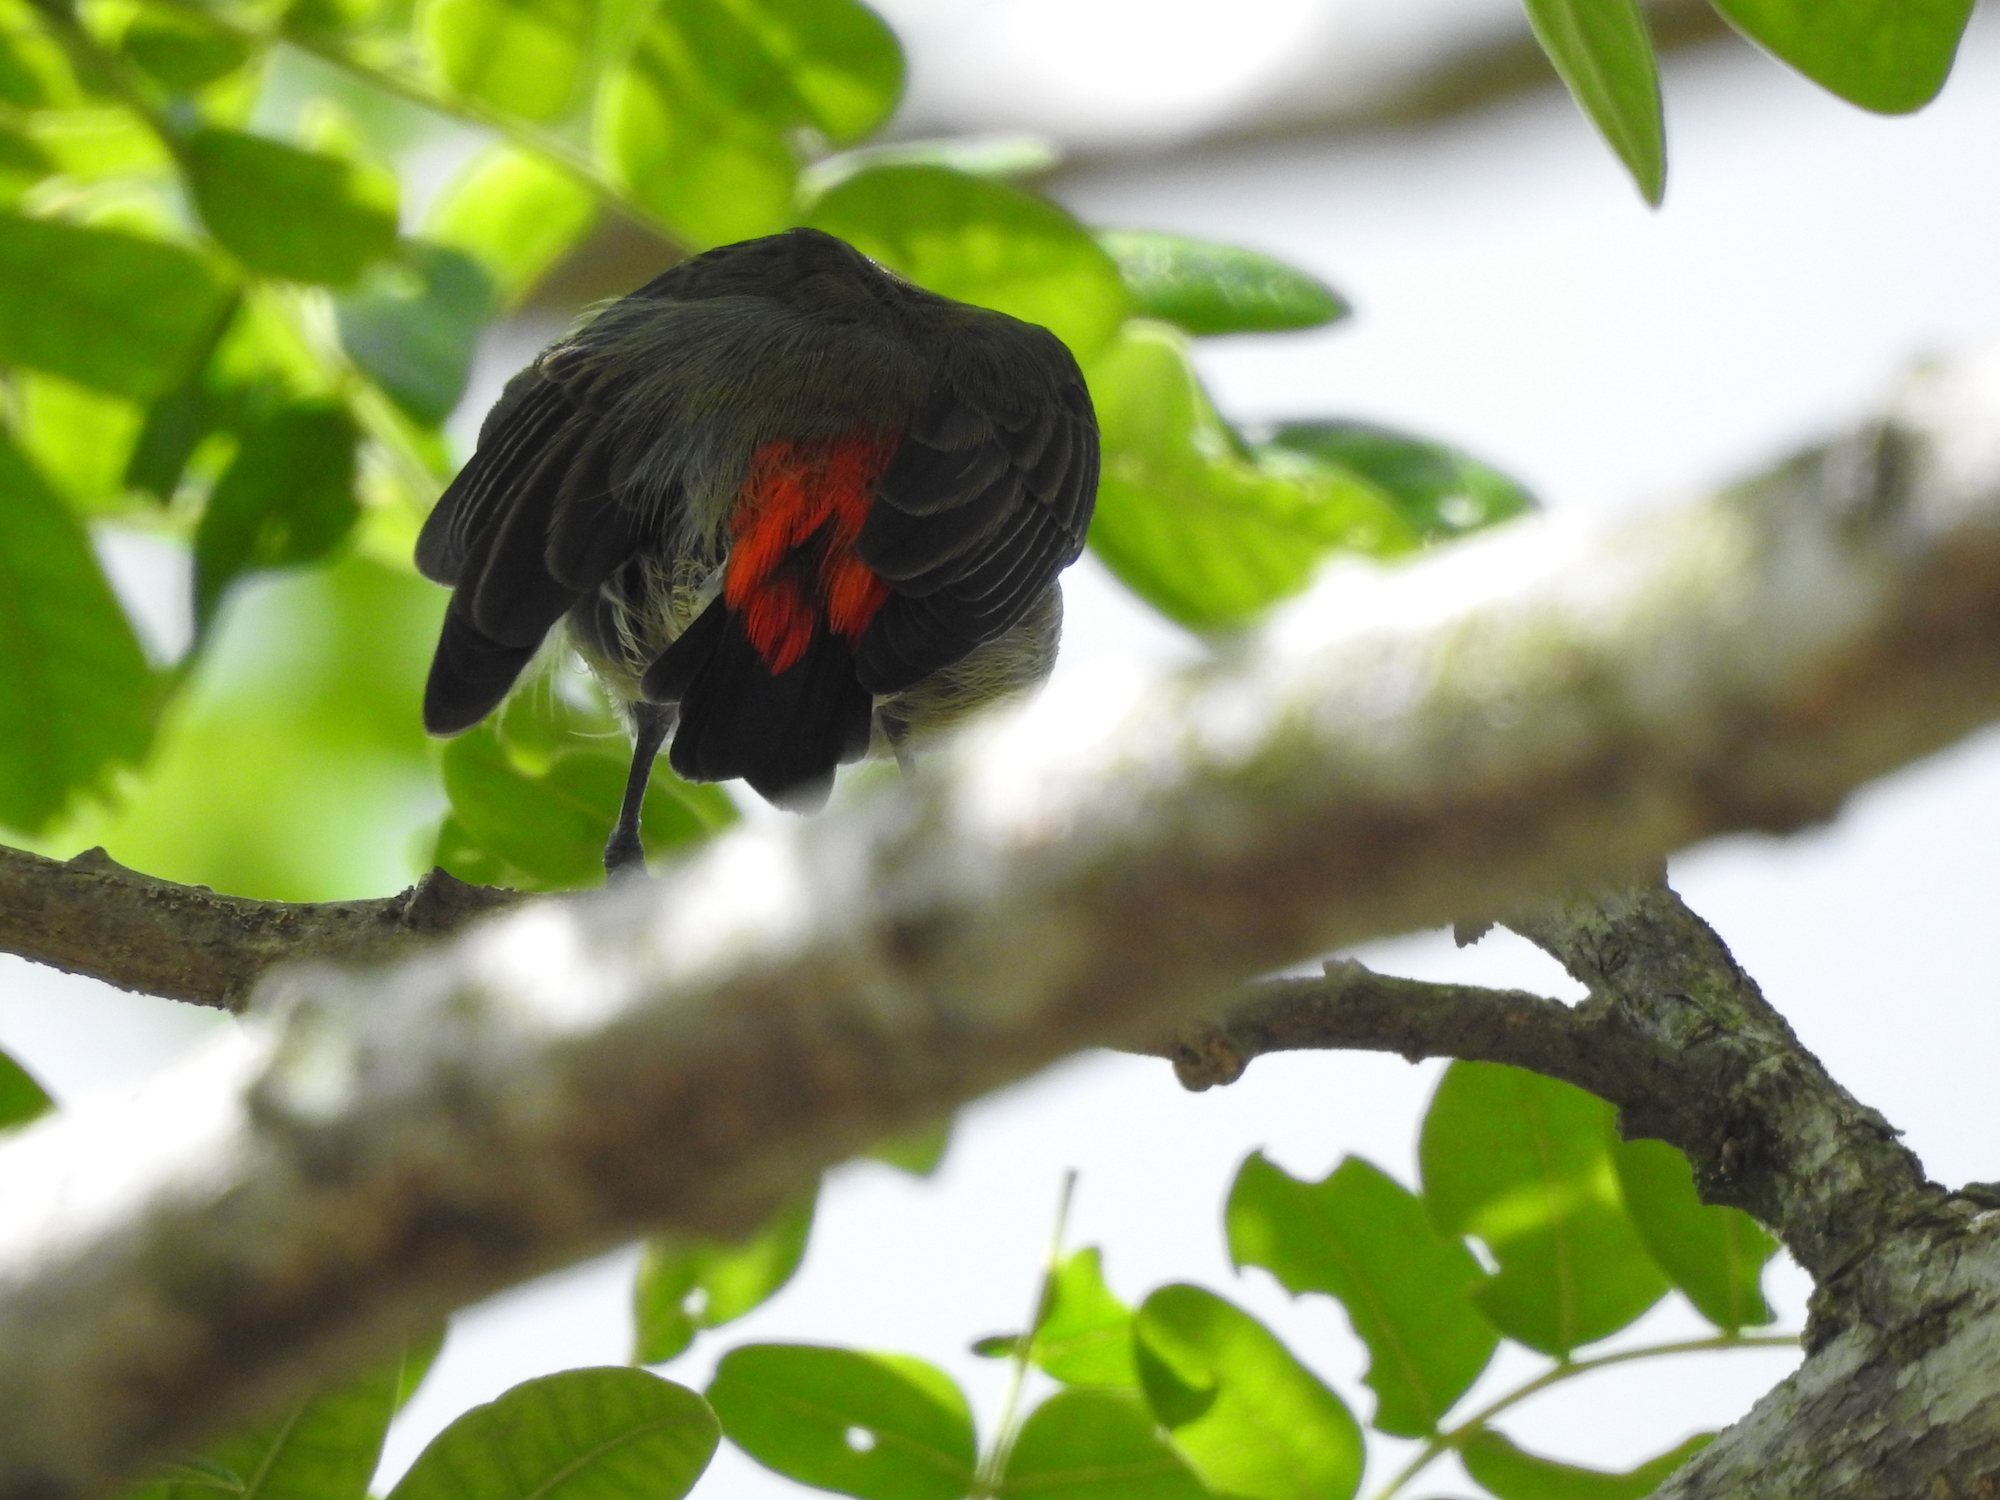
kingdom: Animalia
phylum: Chordata
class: Aves
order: Passeriformes
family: Dicaeidae
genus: Dicaeum
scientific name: Dicaeum cruentatum
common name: Scarlet-backed flowerpecker
